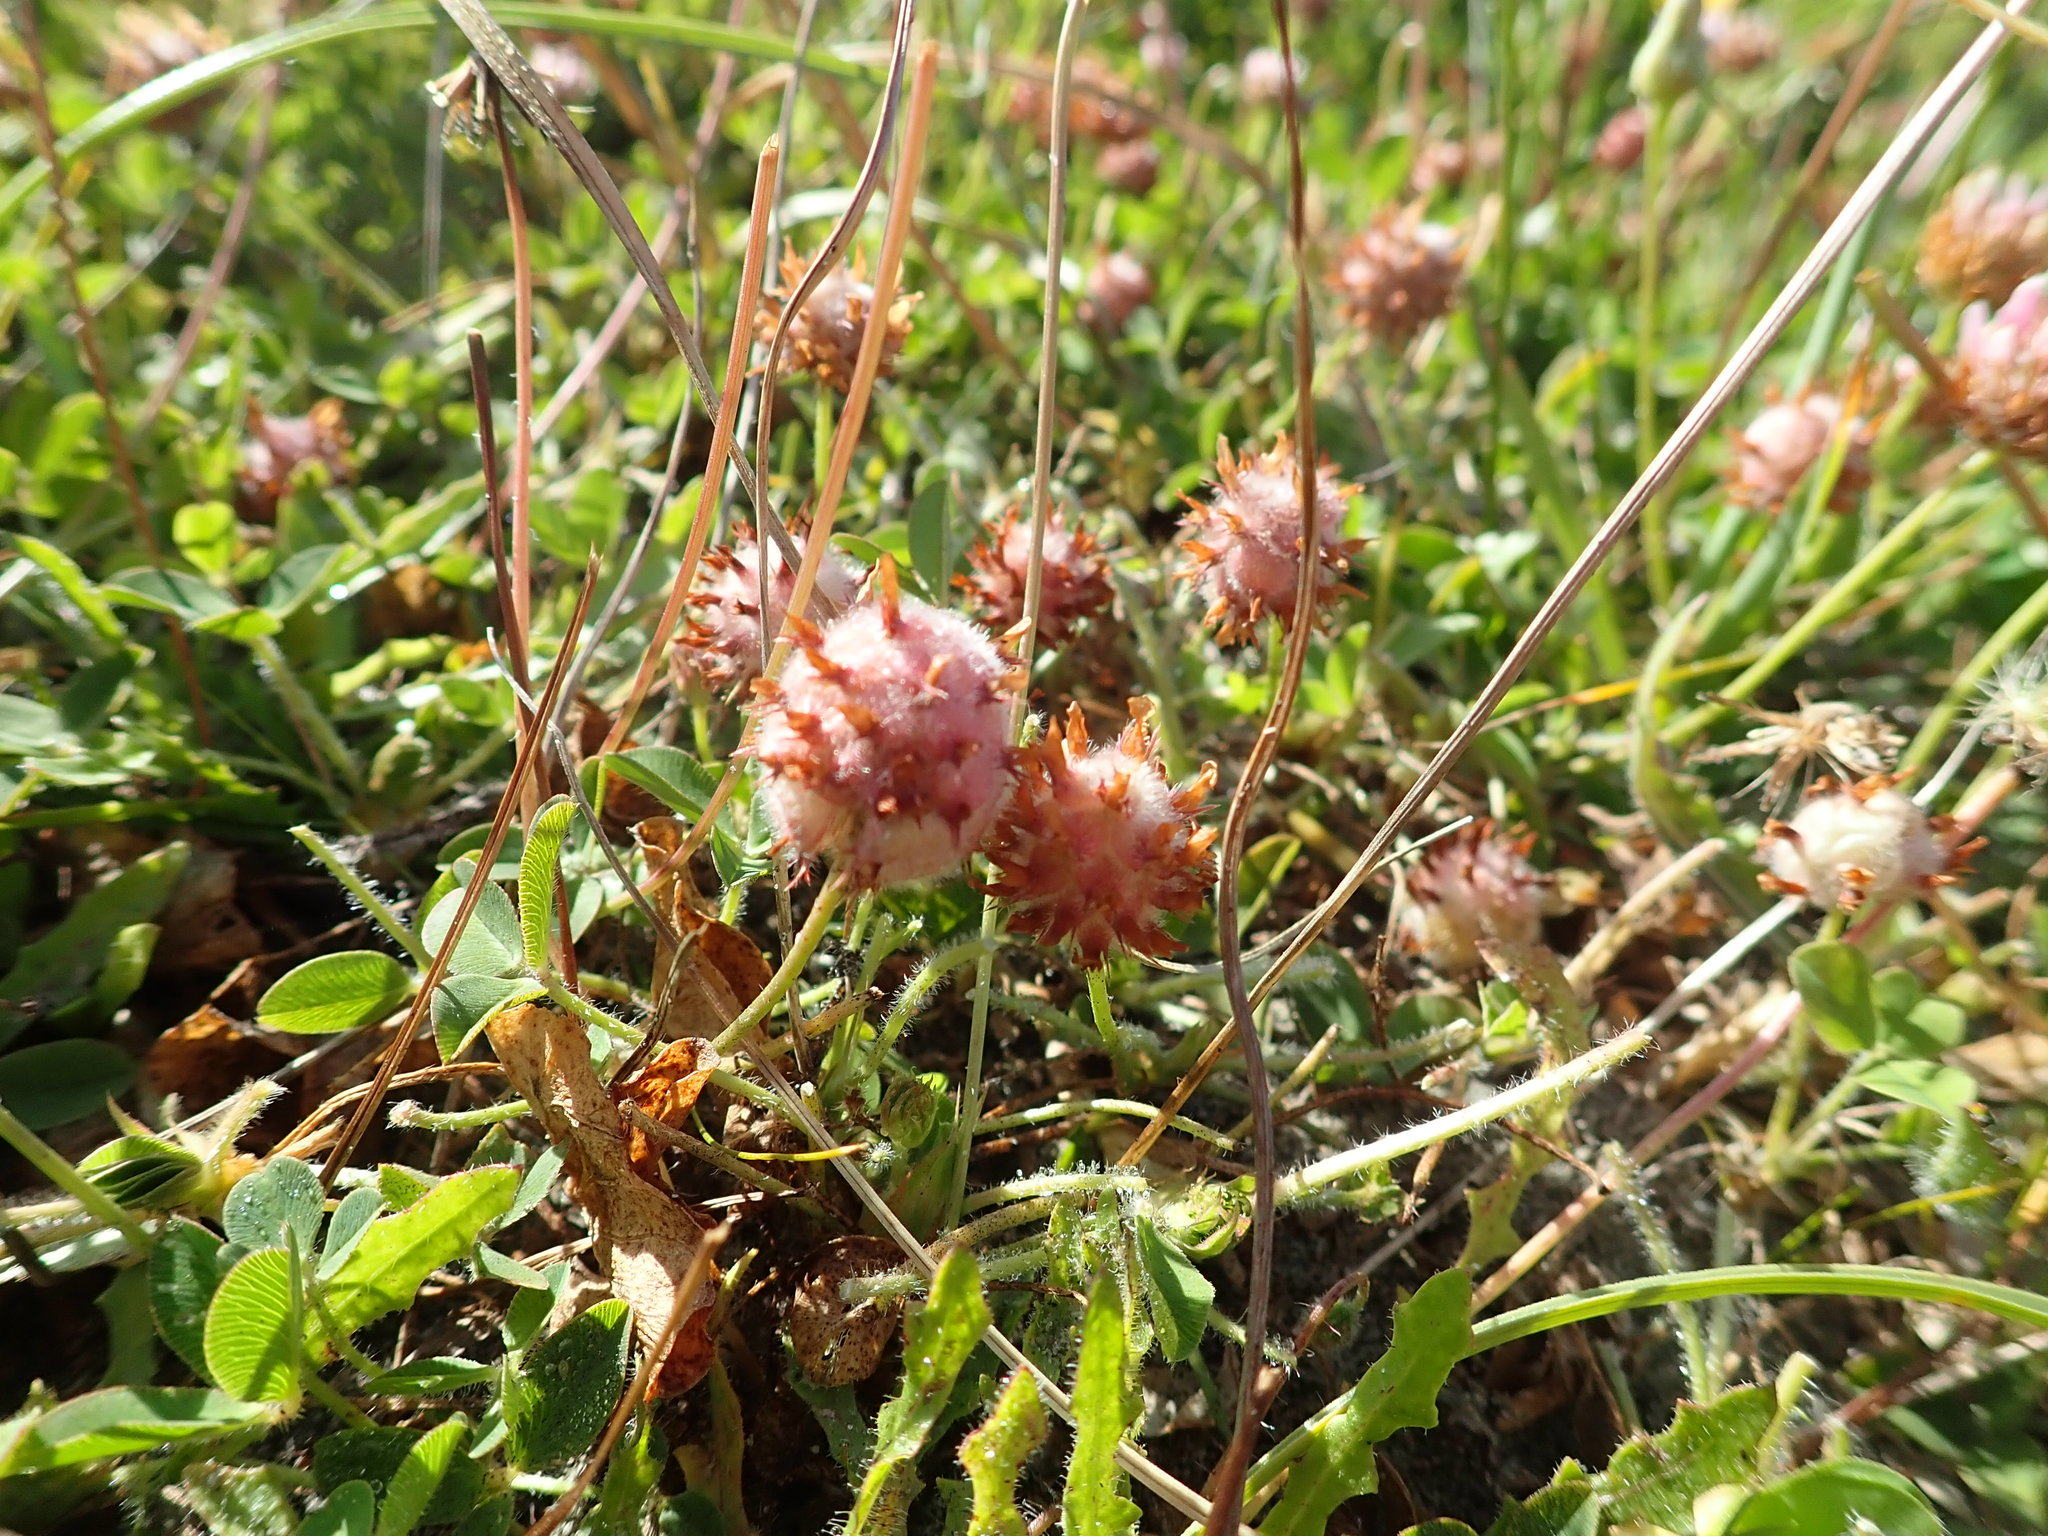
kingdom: Plantae
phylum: Tracheophyta
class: Magnoliopsida
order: Fabales
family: Fabaceae
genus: Trifolium
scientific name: Trifolium fragiferum
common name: Strawberry clover
